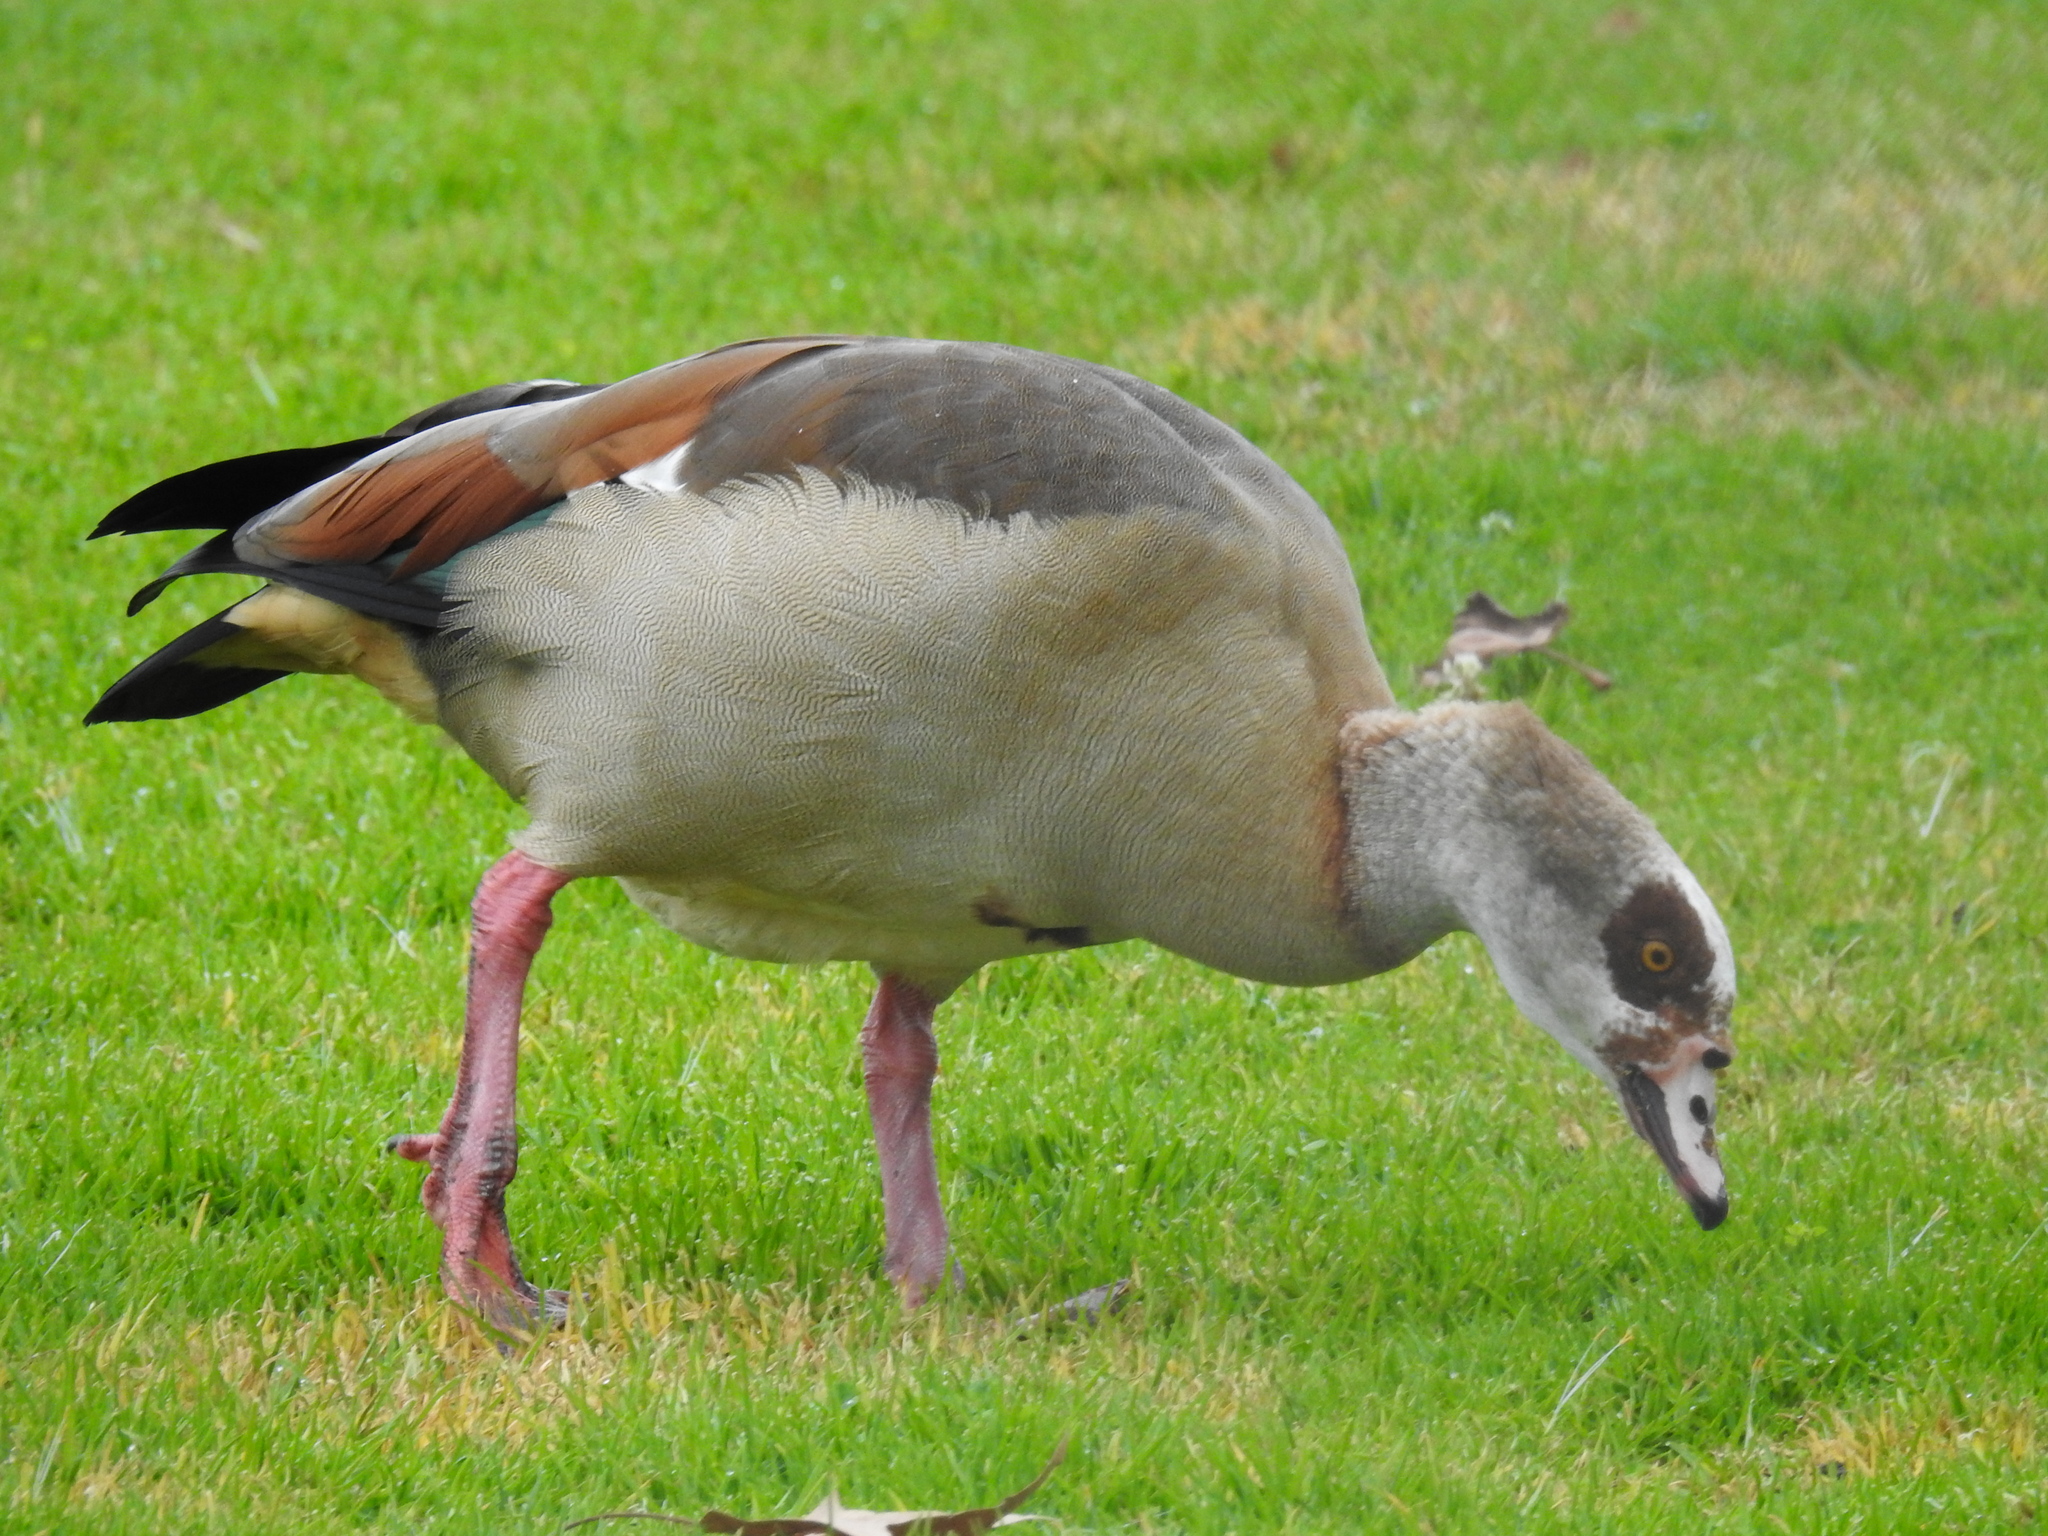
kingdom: Animalia
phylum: Chordata
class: Aves
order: Anseriformes
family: Anatidae
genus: Alopochen
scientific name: Alopochen aegyptiaca
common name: Egyptian goose
